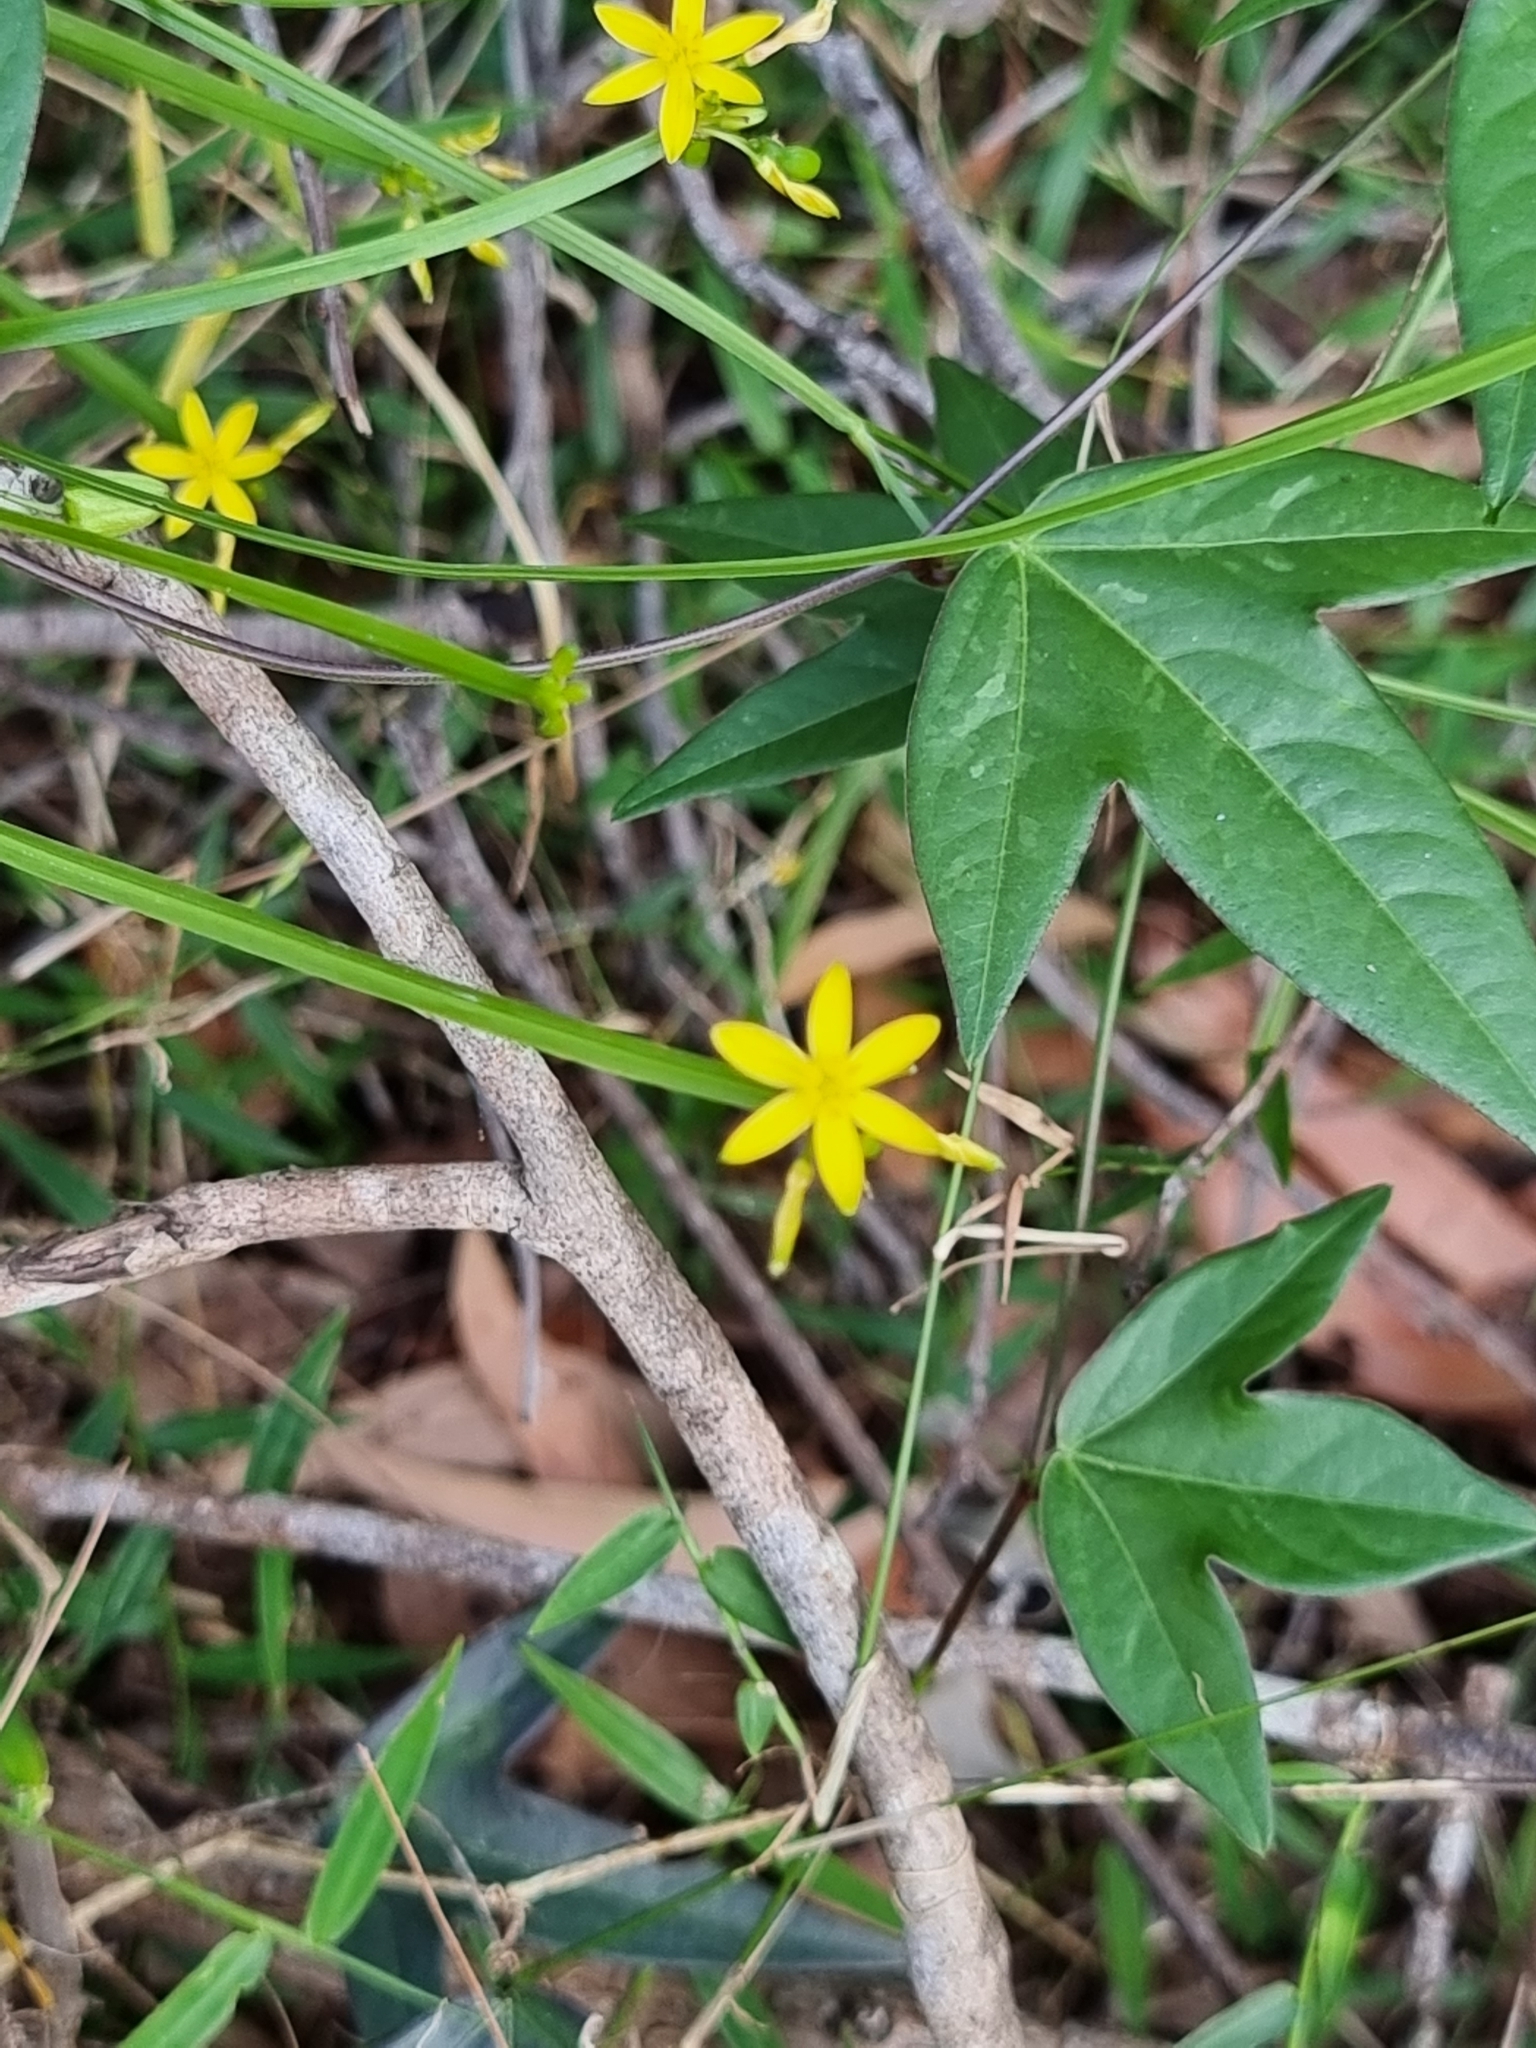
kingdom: Plantae
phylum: Tracheophyta
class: Liliopsida
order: Asparagales
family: Asphodelaceae
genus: Tricoryne
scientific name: Tricoryne anceps
